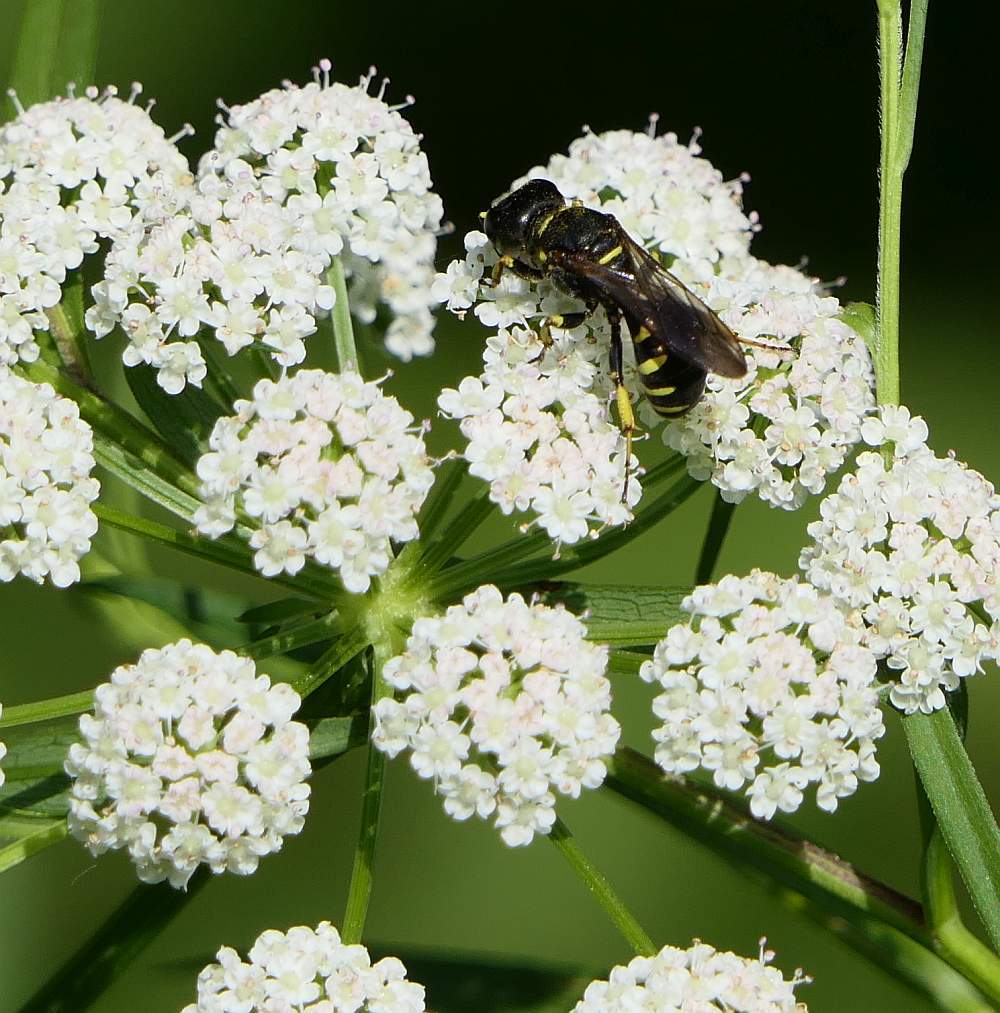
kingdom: Animalia
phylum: Arthropoda
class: Insecta
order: Hymenoptera
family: Crabronidae
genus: Ectemnius
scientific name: Ectemnius arcuatus
